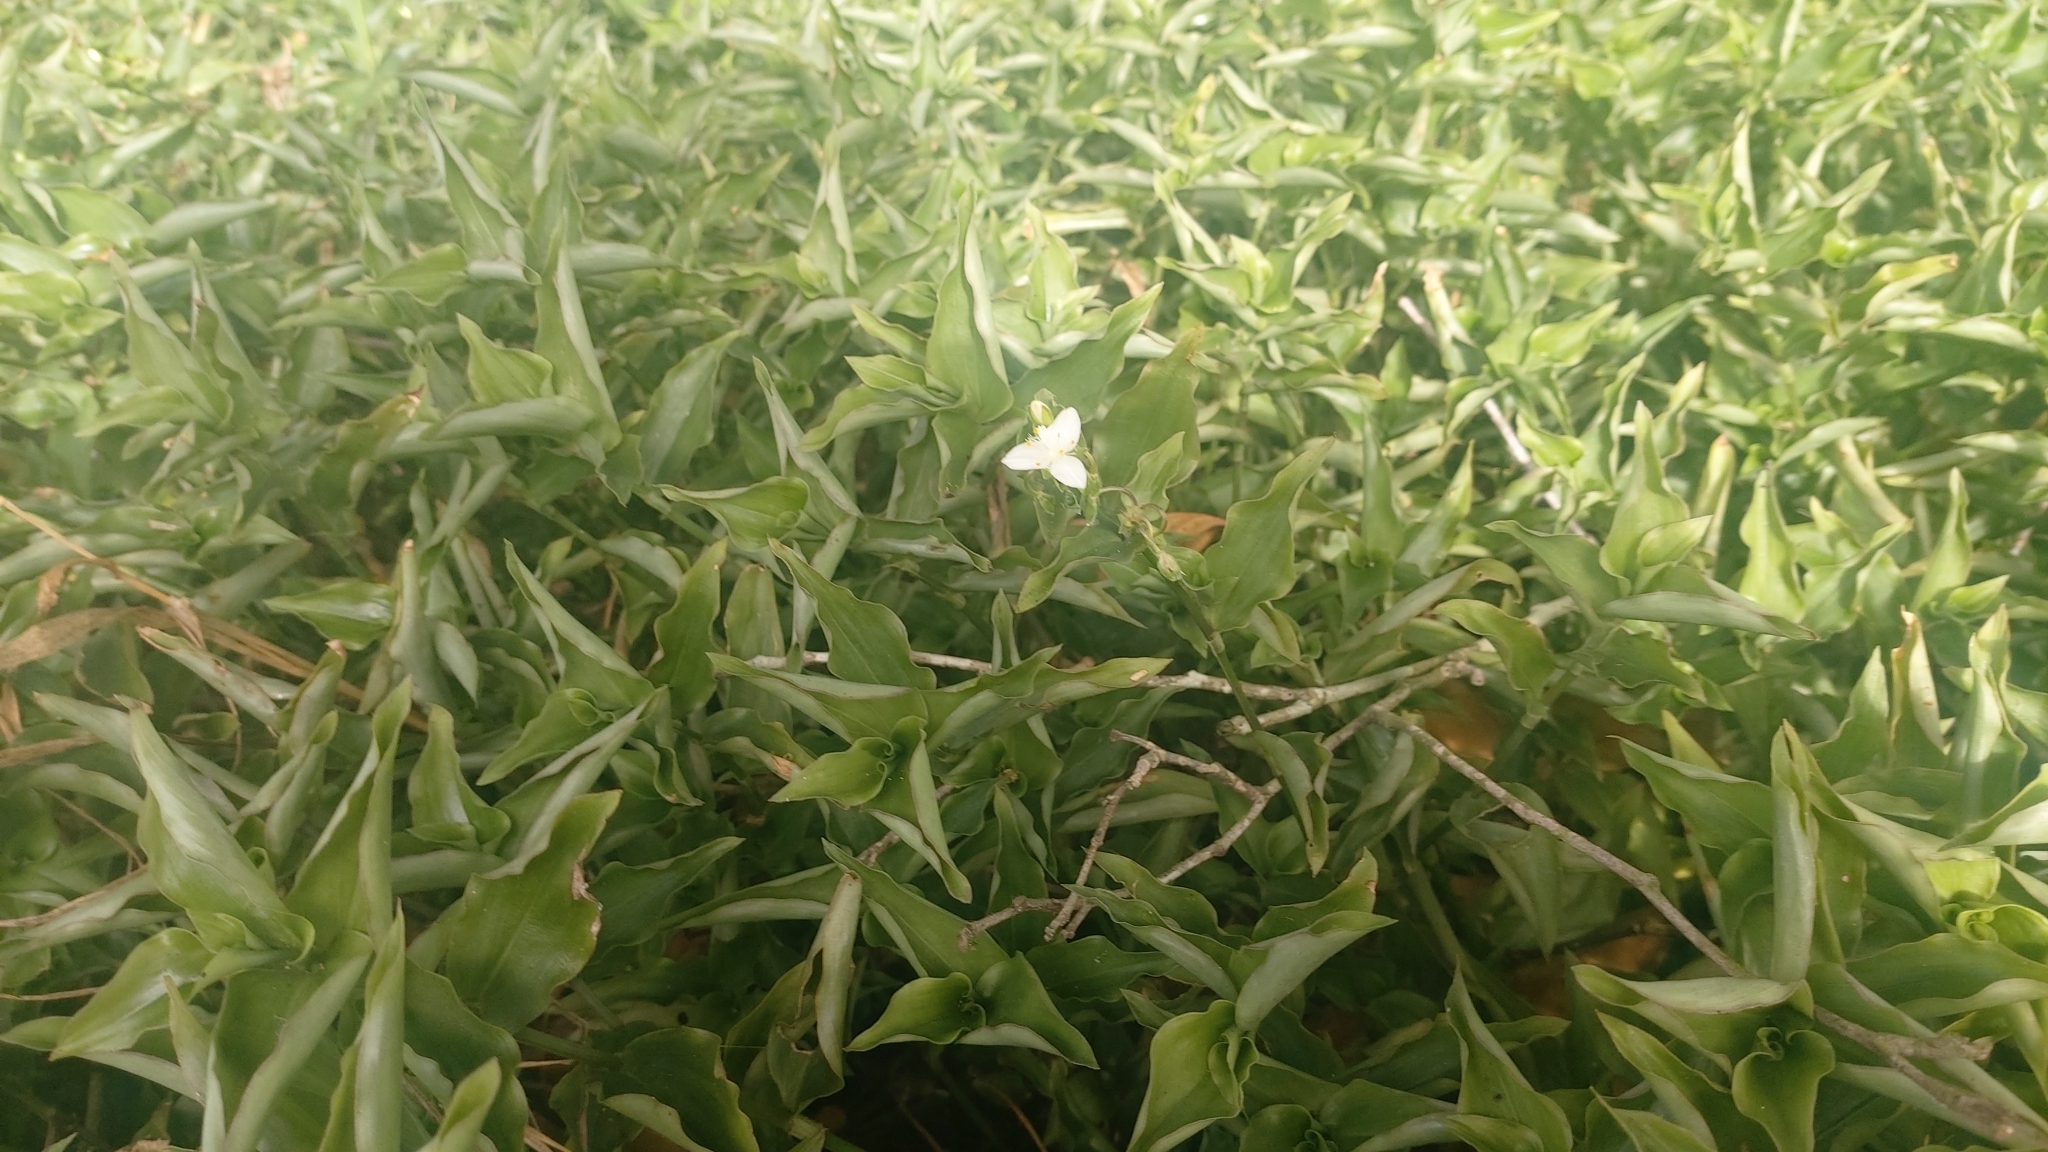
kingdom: Plantae
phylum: Tracheophyta
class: Liliopsida
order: Commelinales
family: Commelinaceae
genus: Tradescantia
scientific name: Tradescantia fluminensis
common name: Wandering-jew
